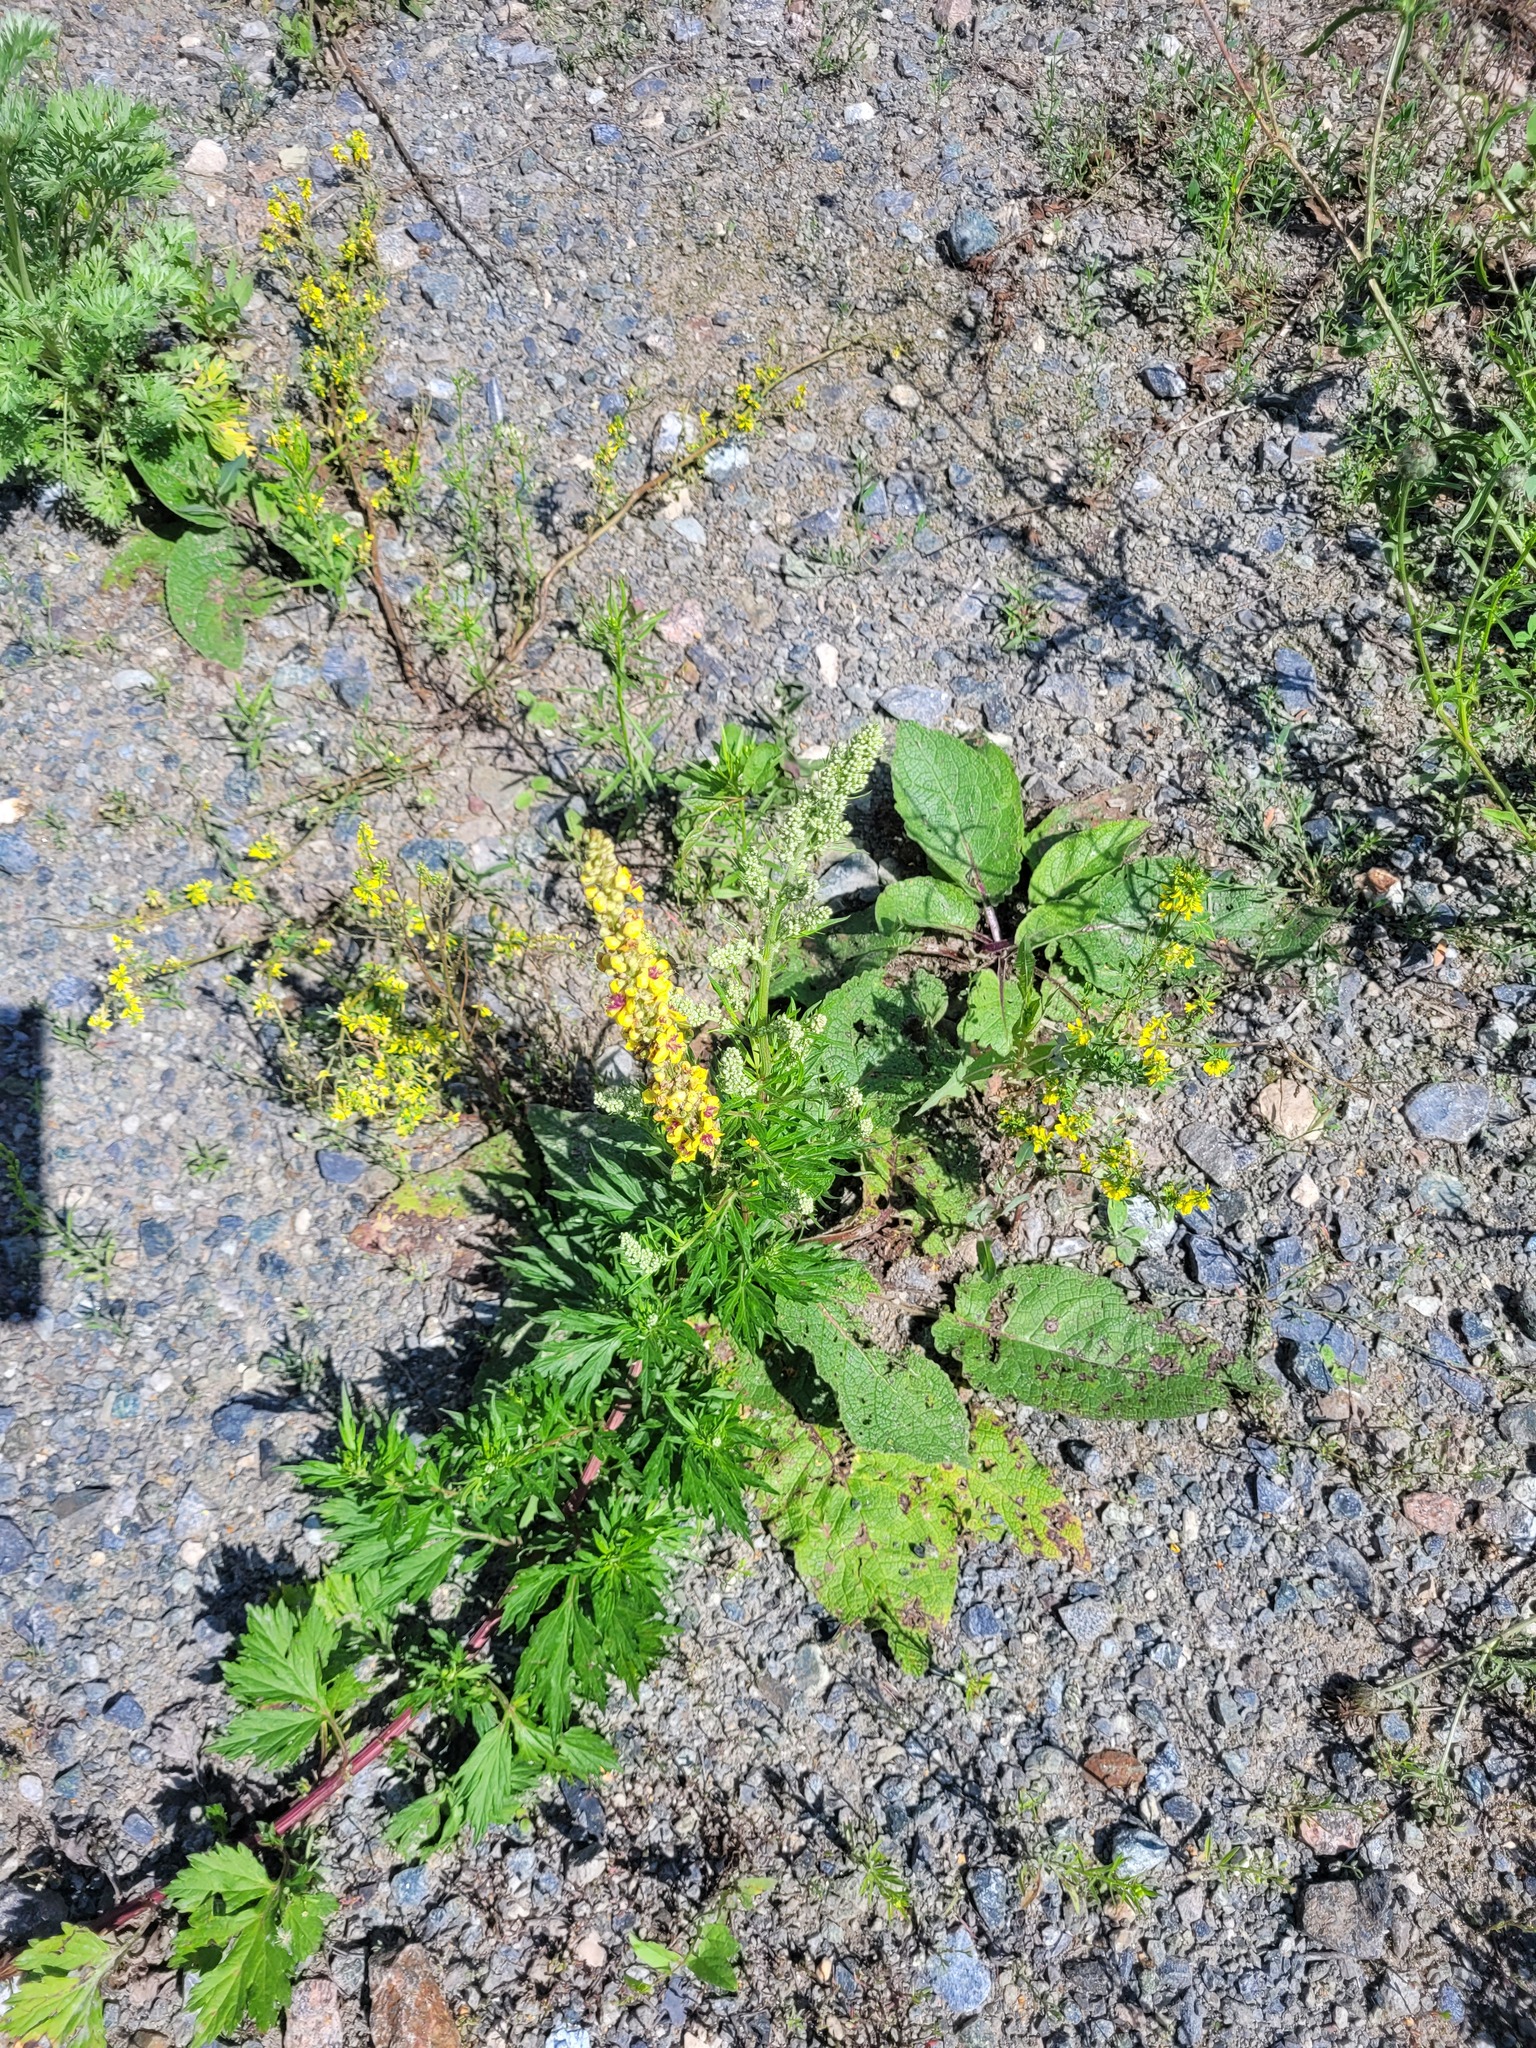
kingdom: Plantae
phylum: Tracheophyta
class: Magnoliopsida
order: Lamiales
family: Scrophulariaceae
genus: Verbascum
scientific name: Verbascum nigrum
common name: Dark mullein
